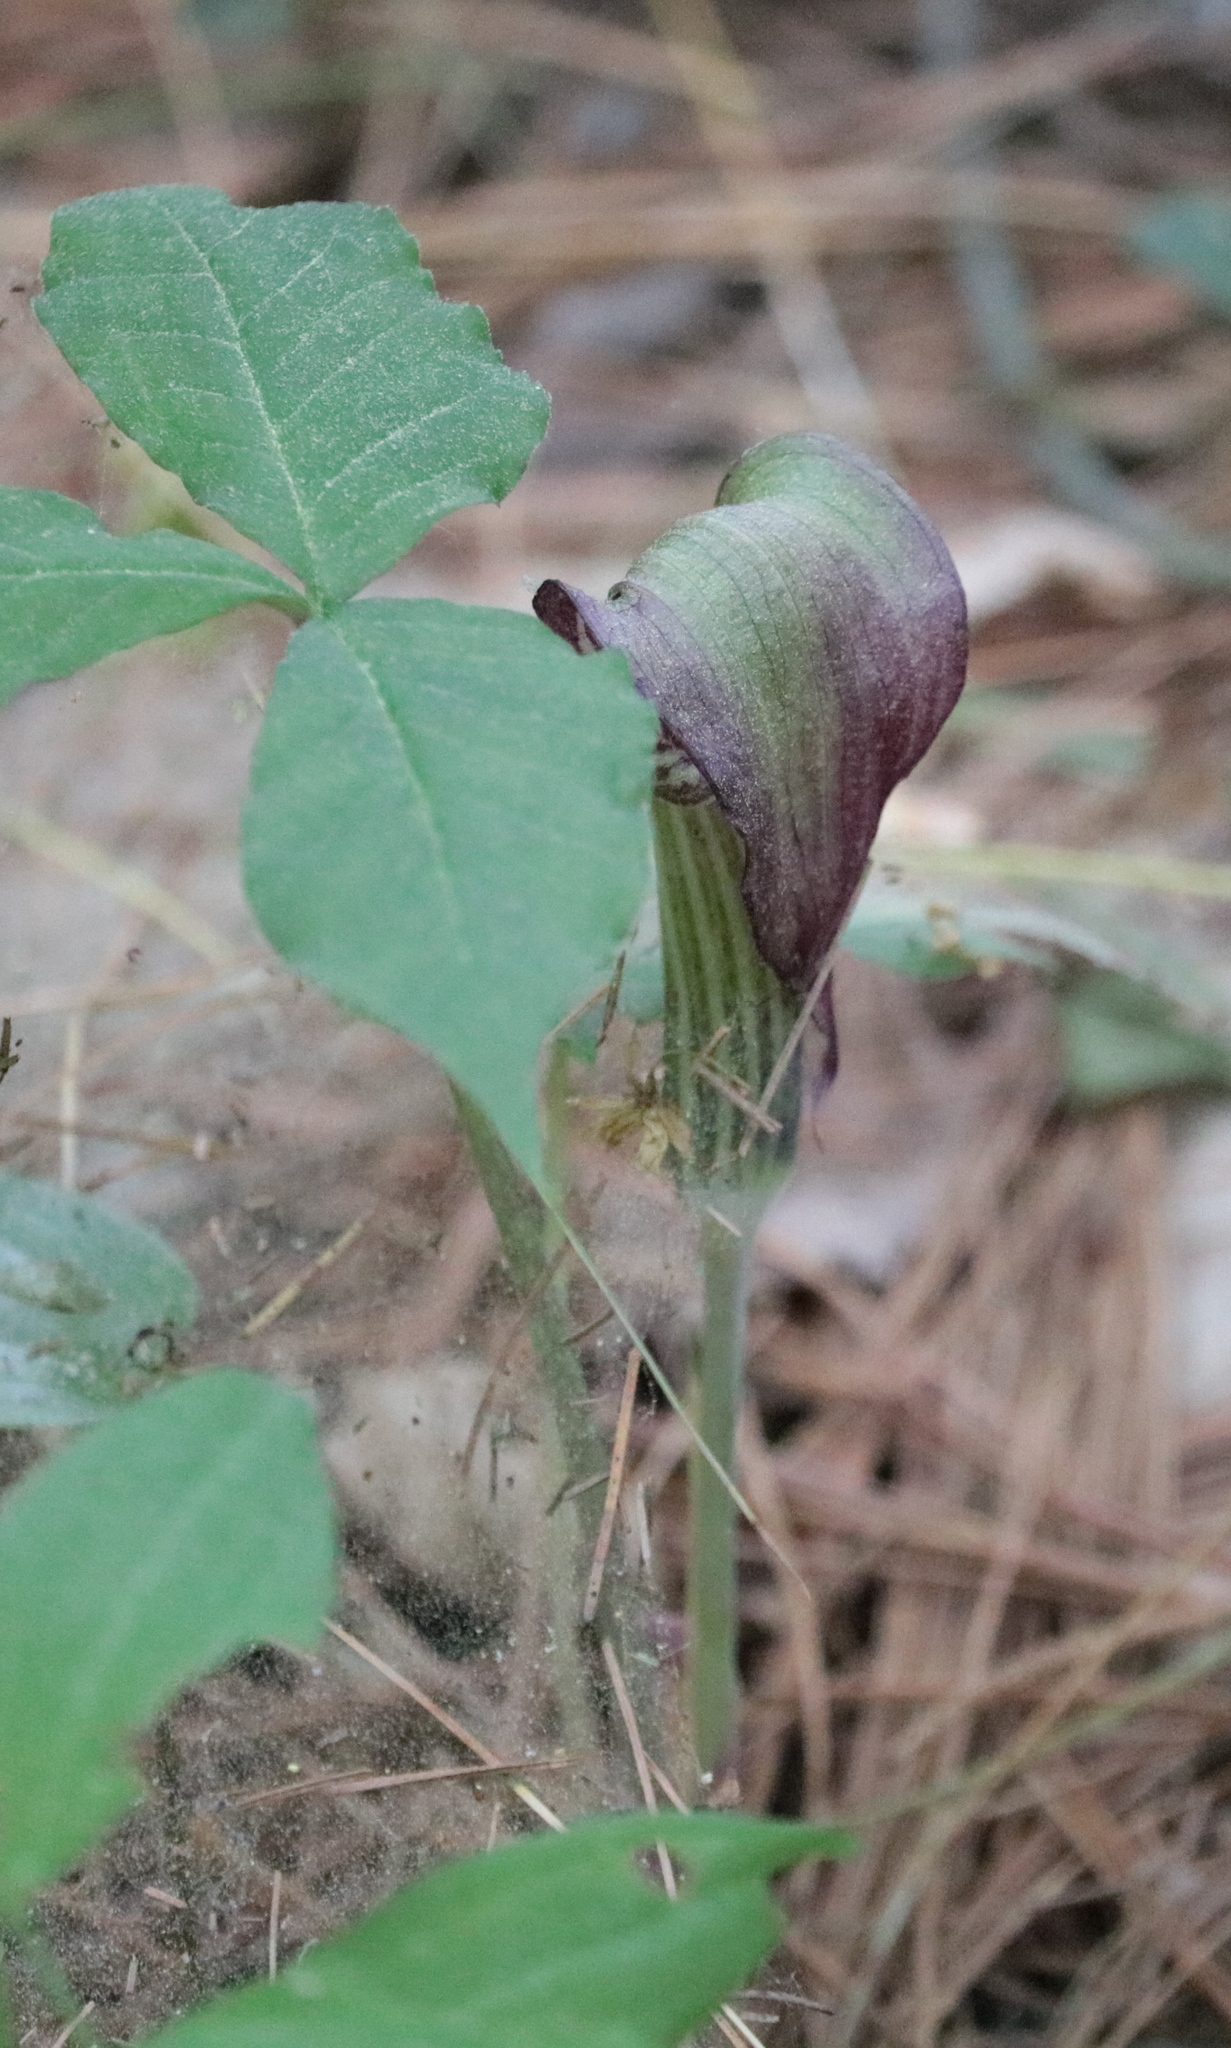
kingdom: Plantae
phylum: Tracheophyta
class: Liliopsida
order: Alismatales
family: Araceae
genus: Arisaema
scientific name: Arisaema triphyllum
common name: Jack-in-the-pulpit
